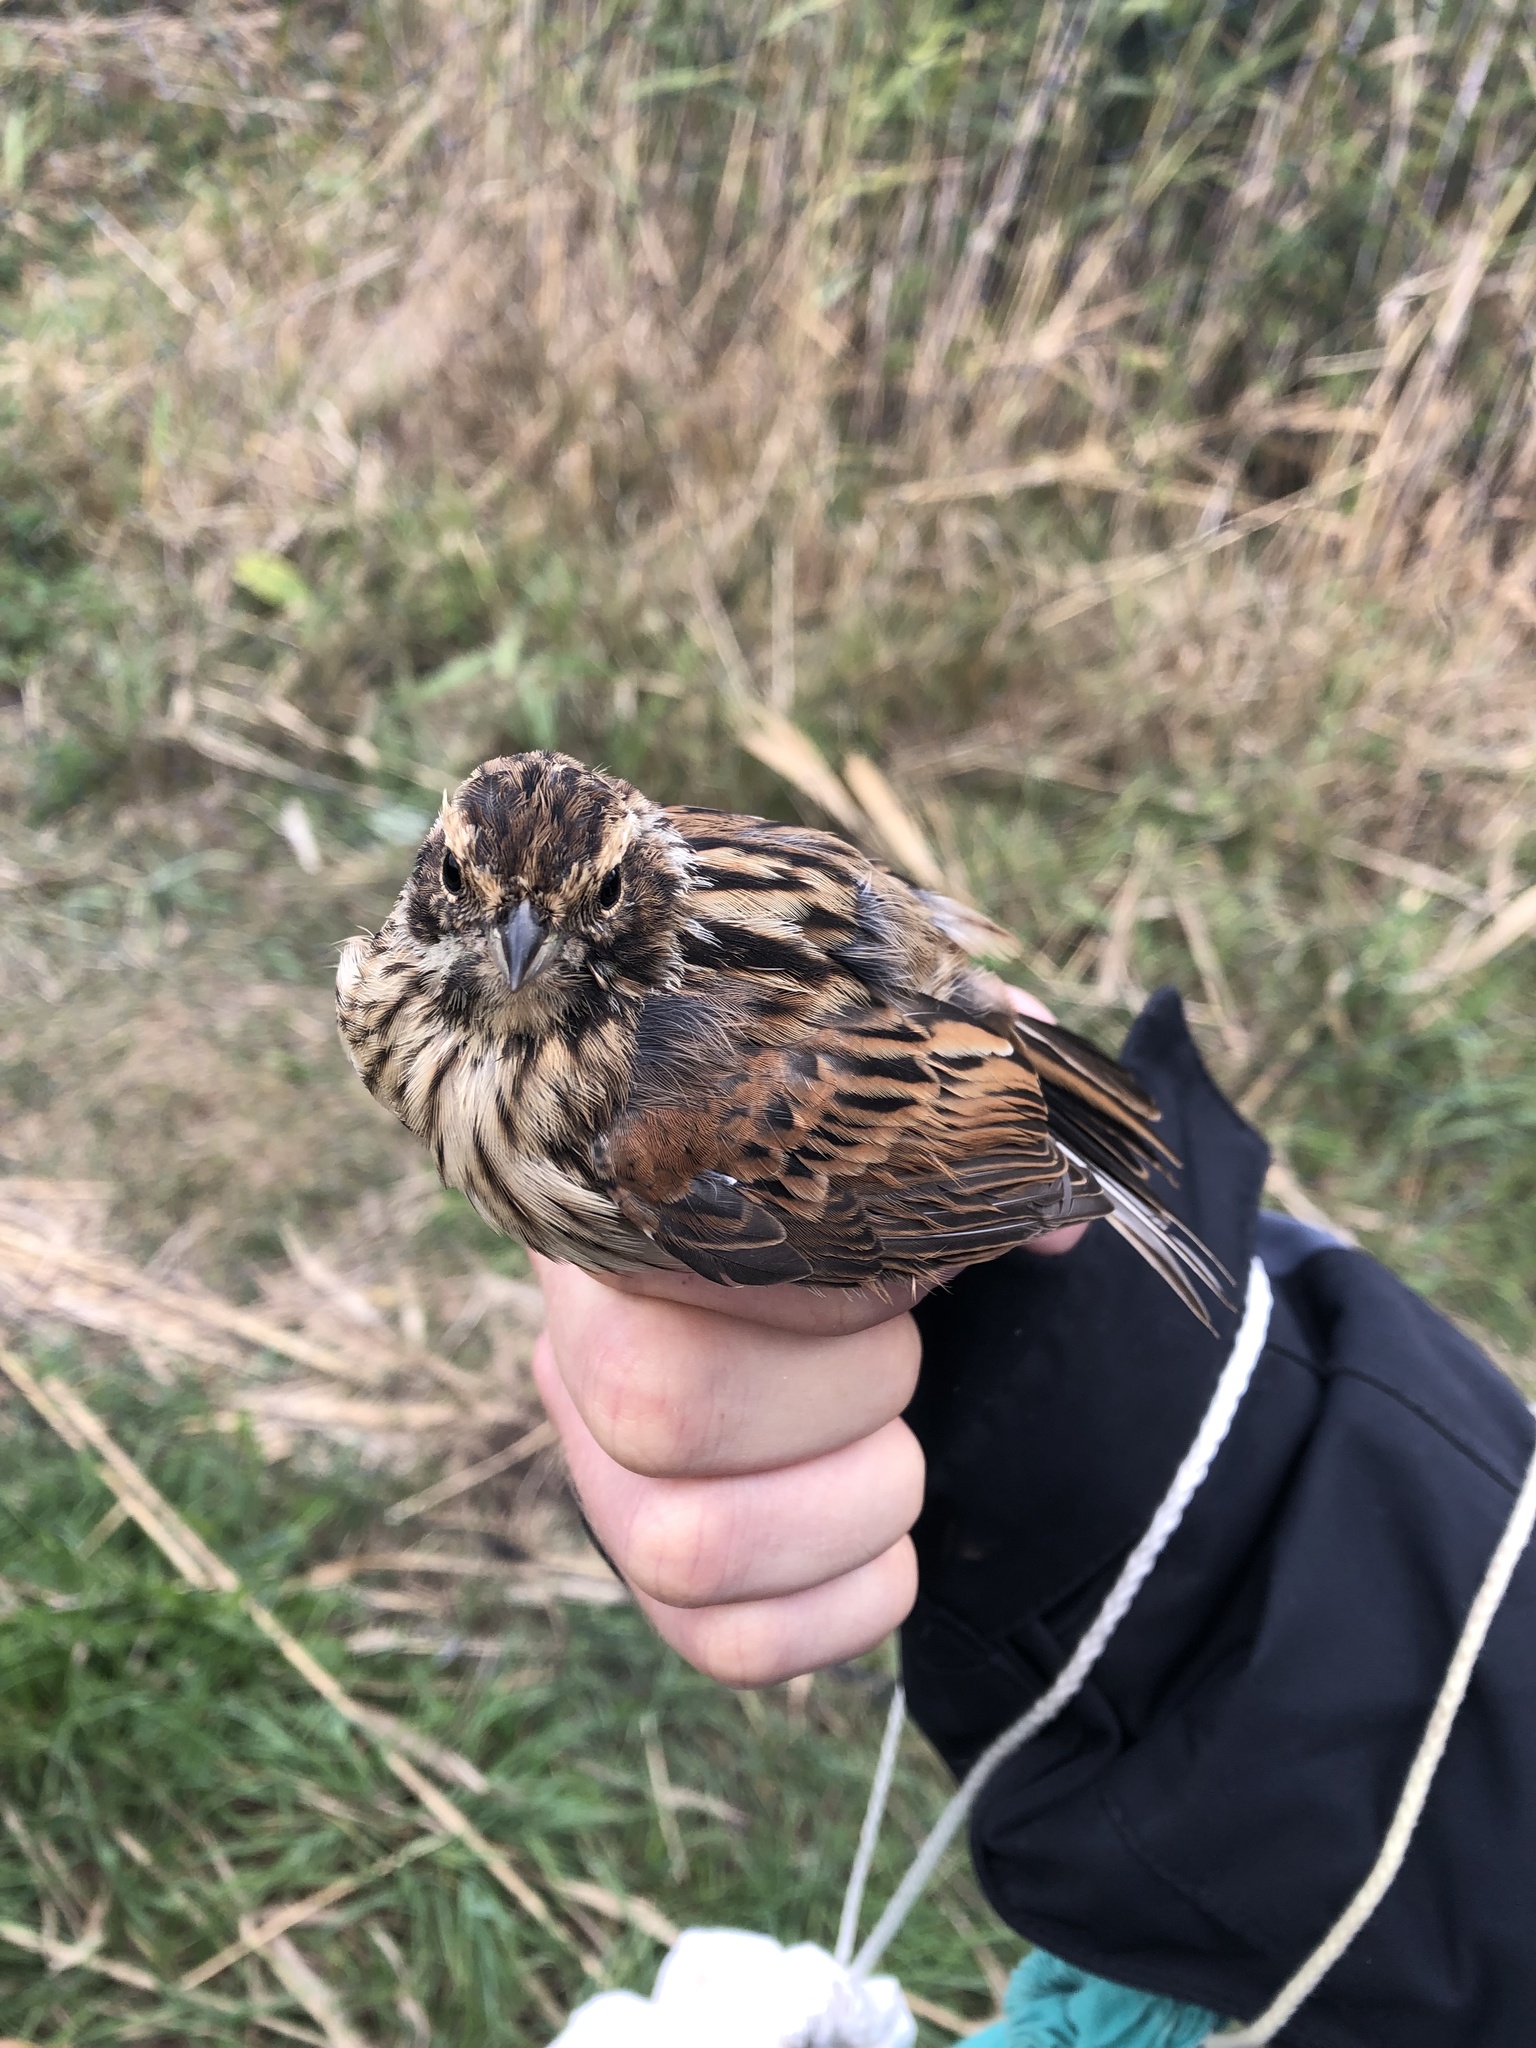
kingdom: Animalia
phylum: Chordata
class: Aves
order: Passeriformes
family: Emberizidae
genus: Emberiza
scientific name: Emberiza schoeniclus
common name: Reed bunting
